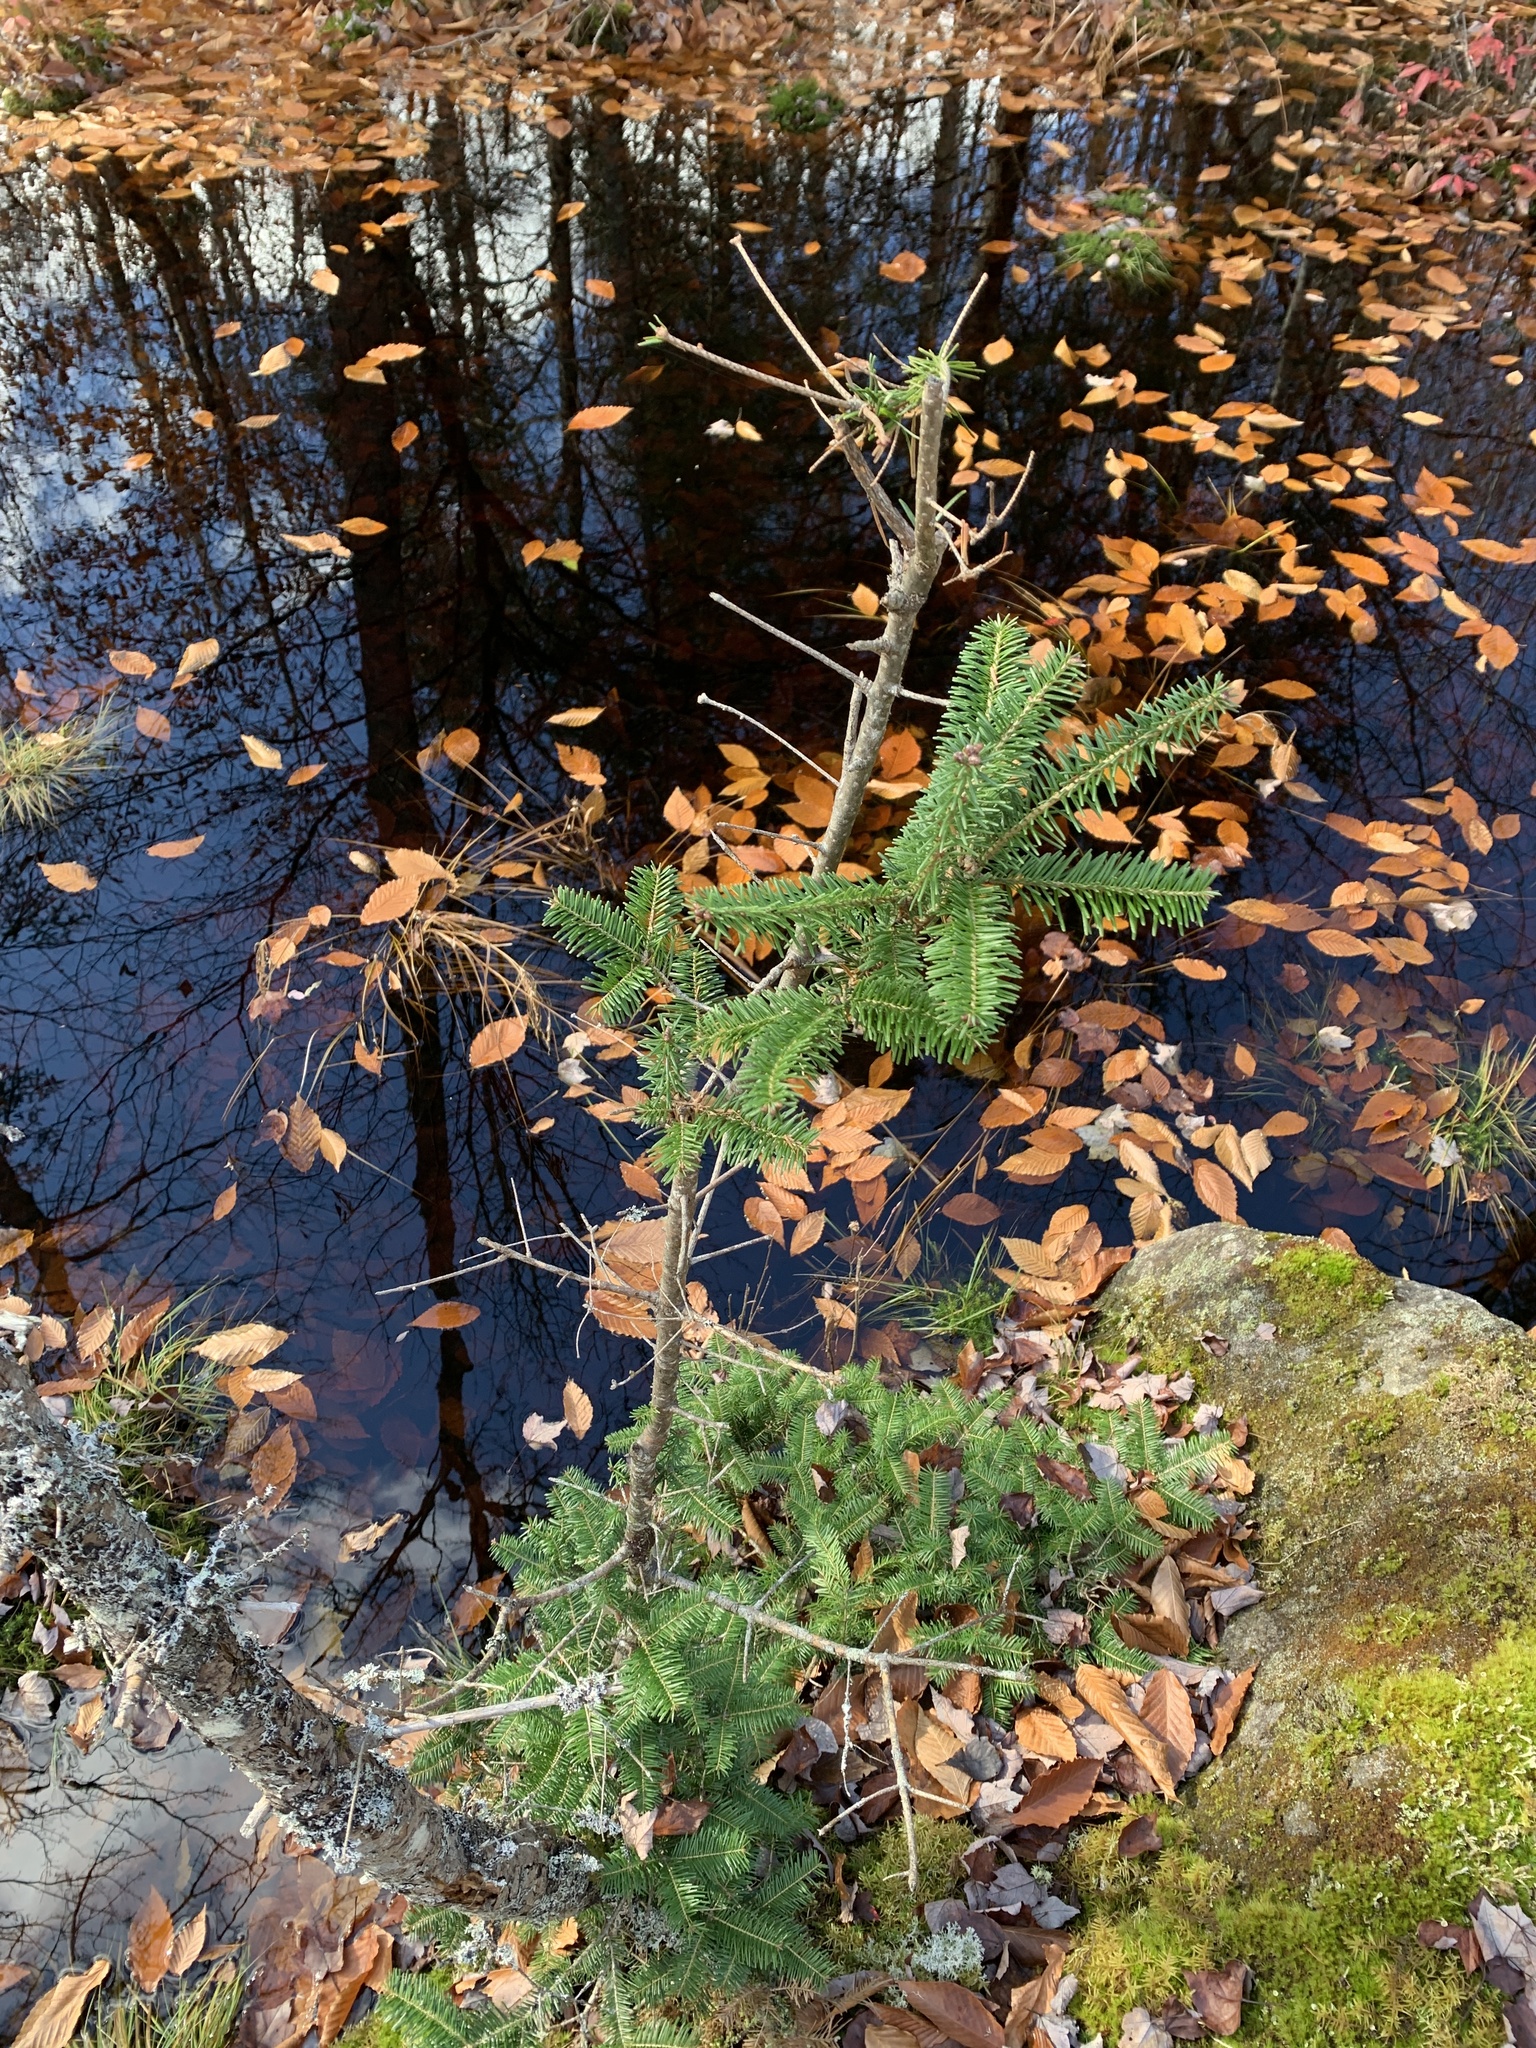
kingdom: Plantae
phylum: Tracheophyta
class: Pinopsida
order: Pinales
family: Pinaceae
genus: Abies
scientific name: Abies balsamea
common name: Balsam fir
